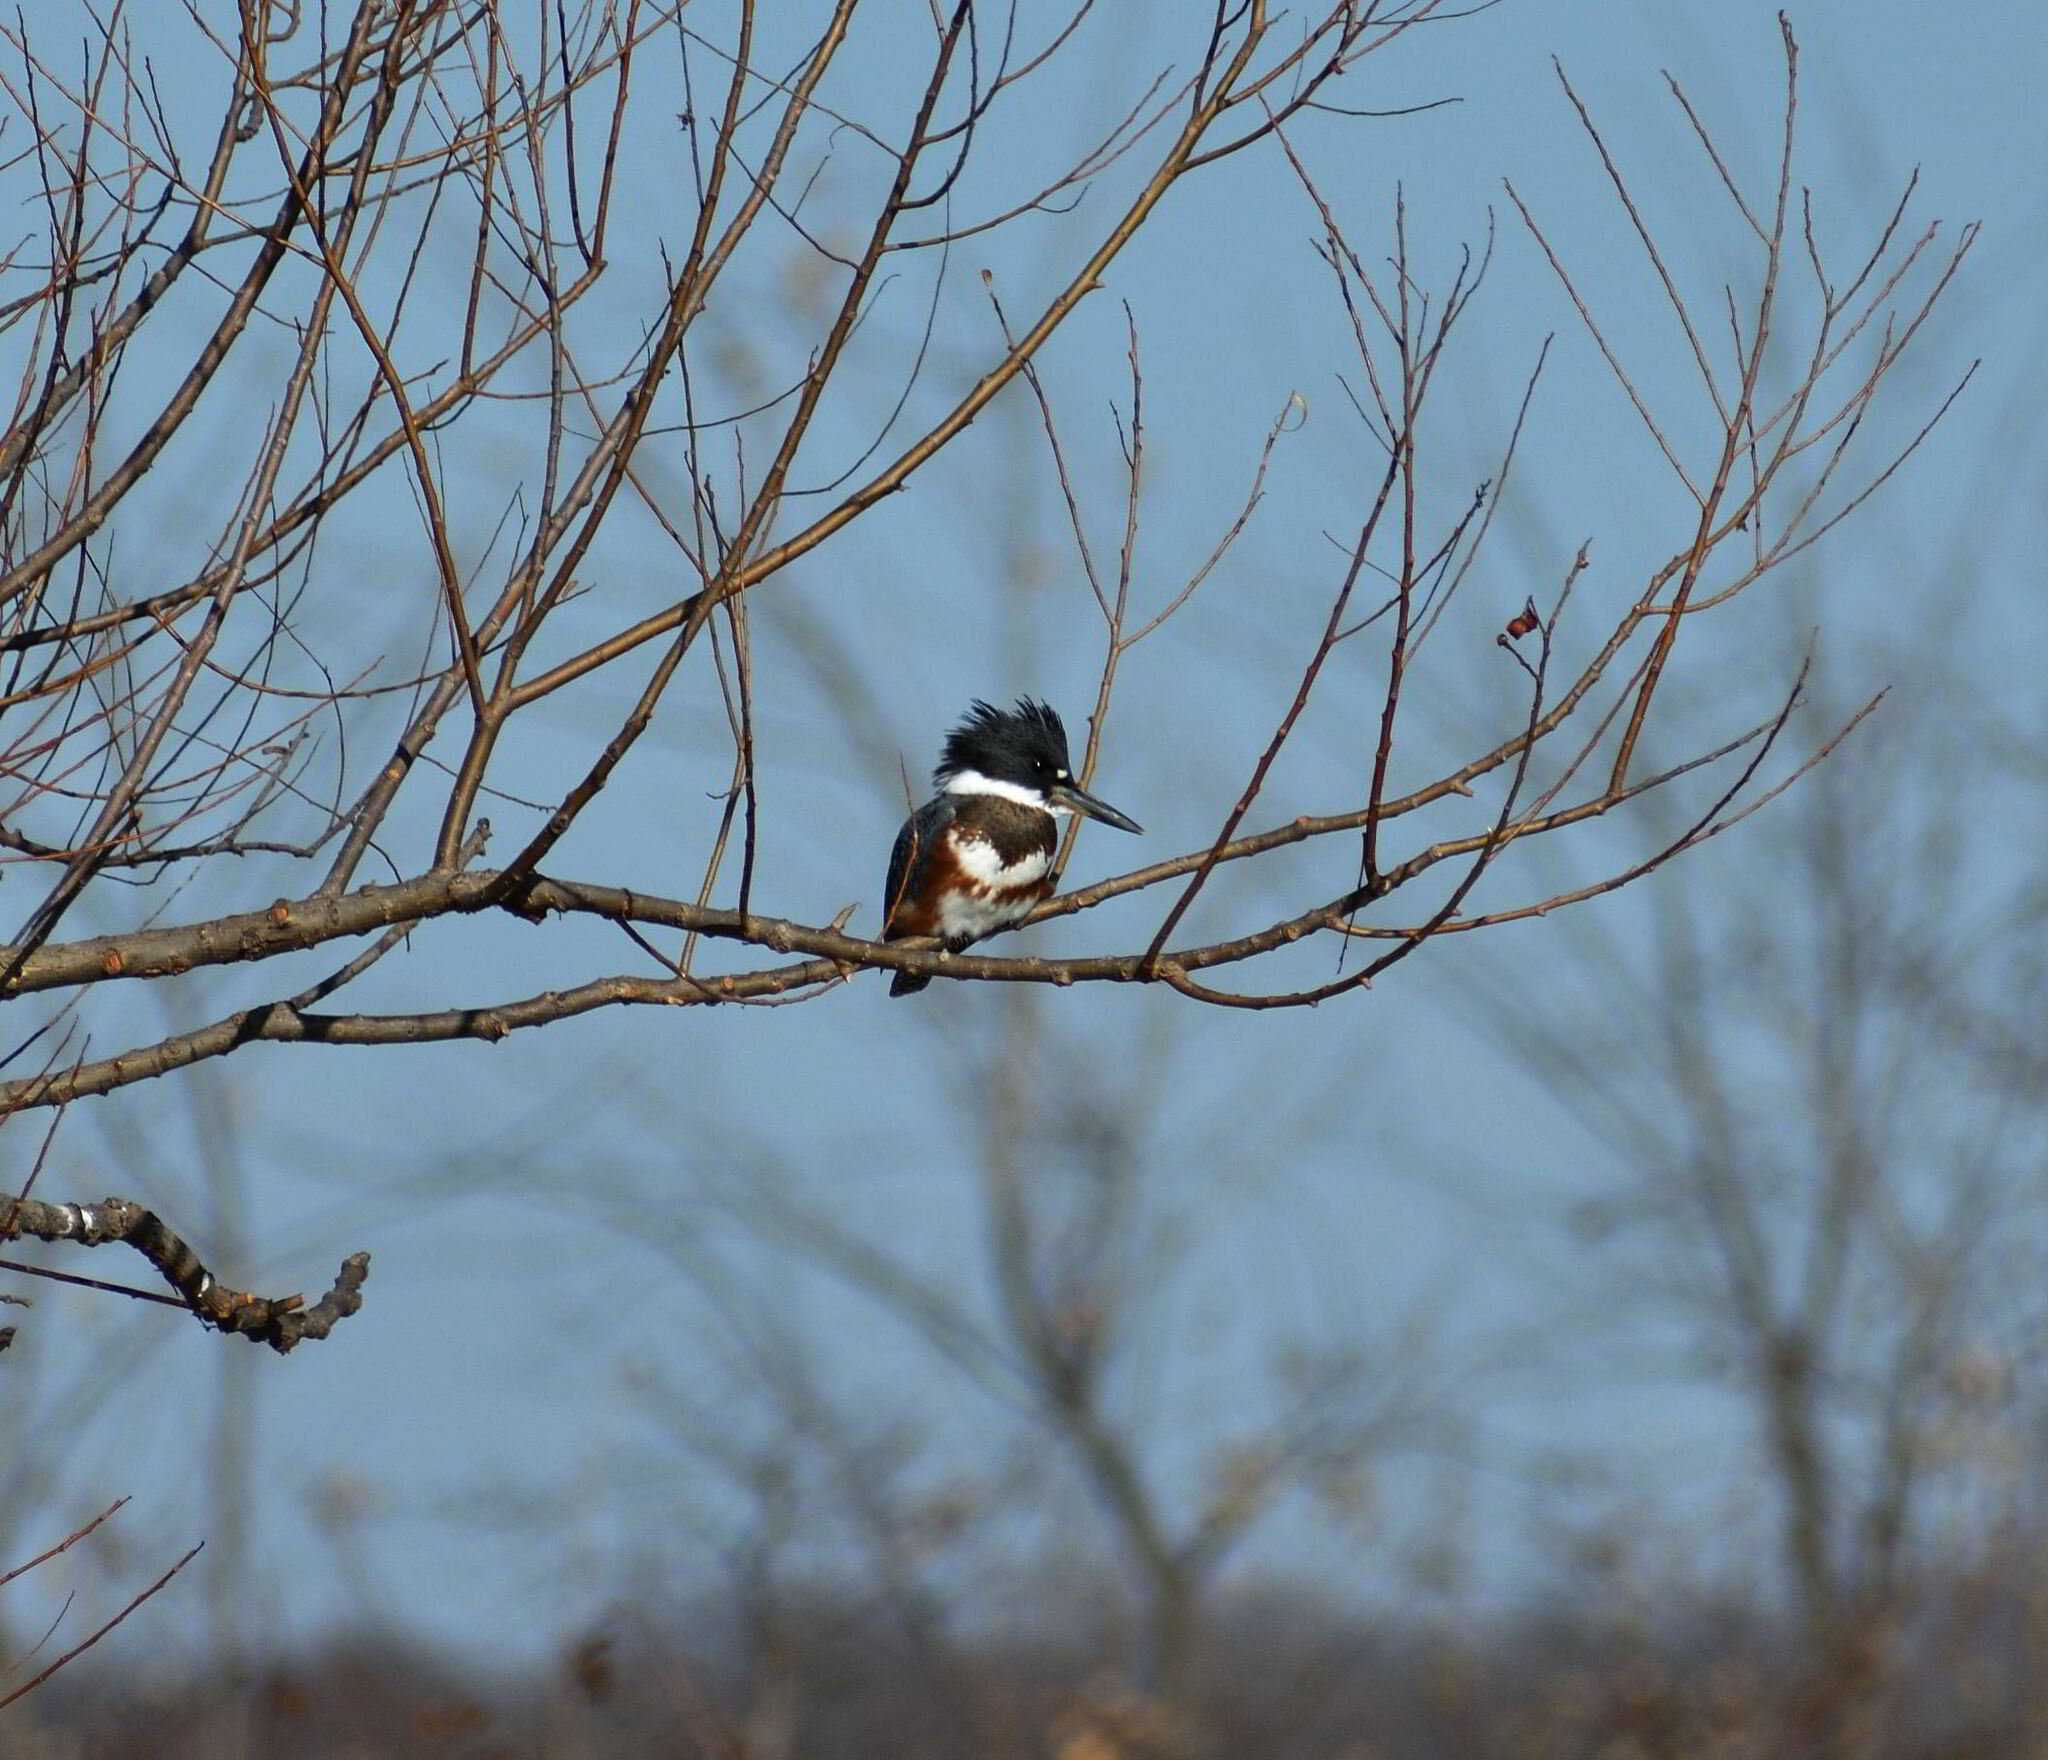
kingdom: Animalia
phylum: Chordata
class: Aves
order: Coraciiformes
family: Alcedinidae
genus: Megaceryle
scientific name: Megaceryle alcyon
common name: Belted kingfisher
